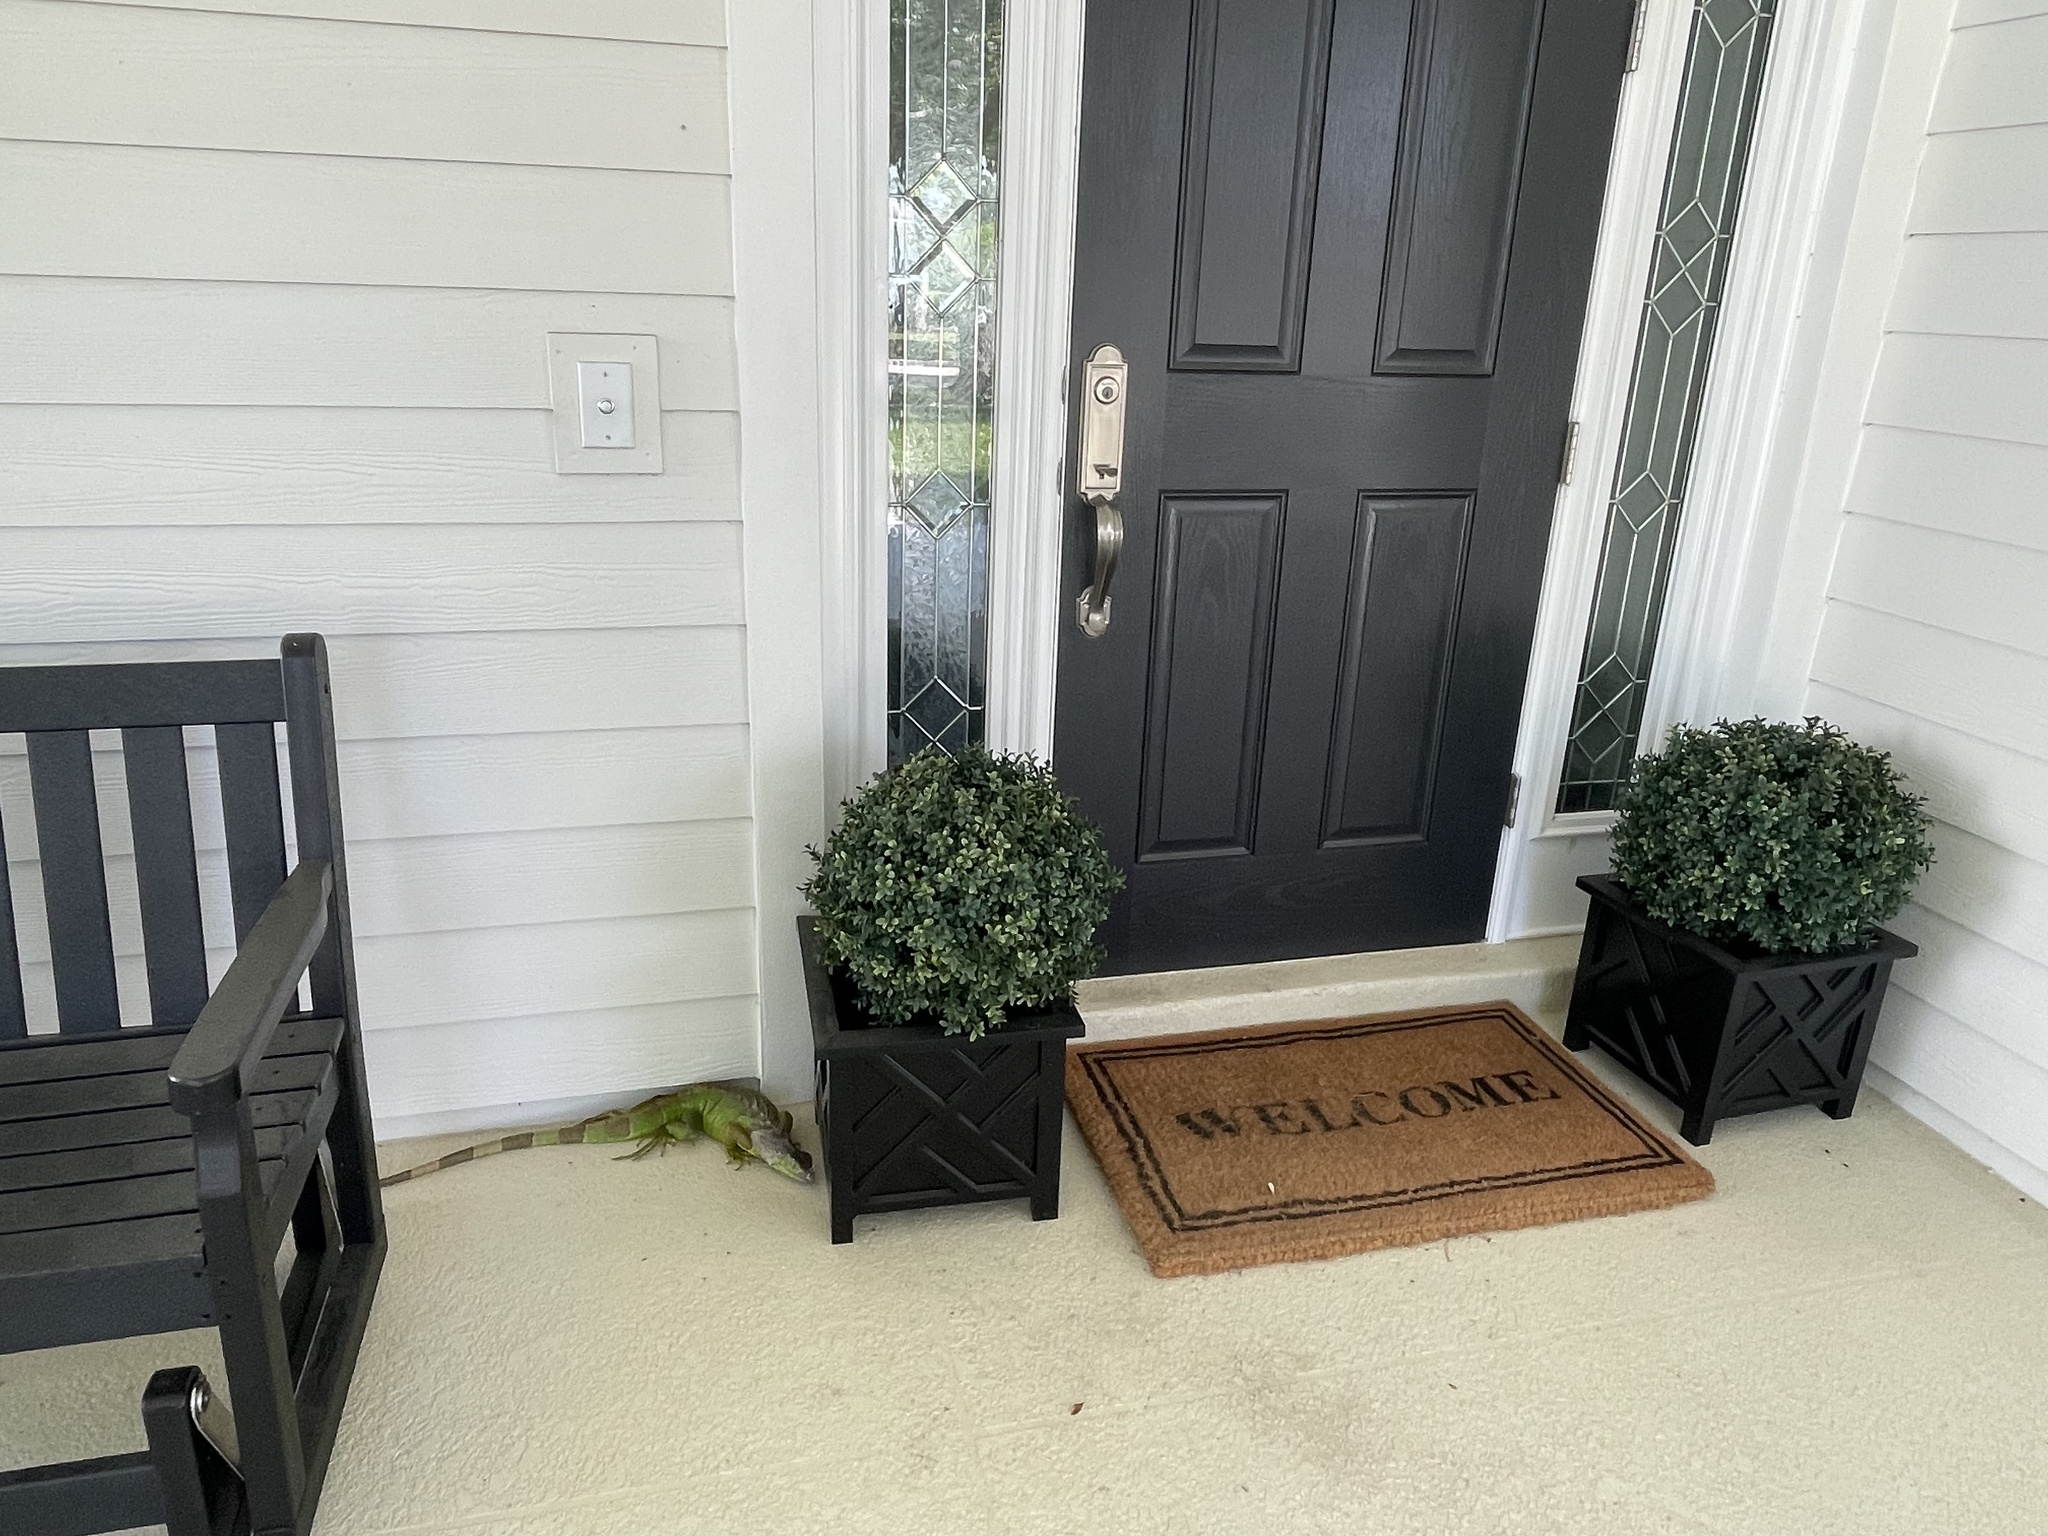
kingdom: Animalia
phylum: Chordata
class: Squamata
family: Iguanidae
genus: Iguana
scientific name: Iguana iguana
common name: Green iguana
